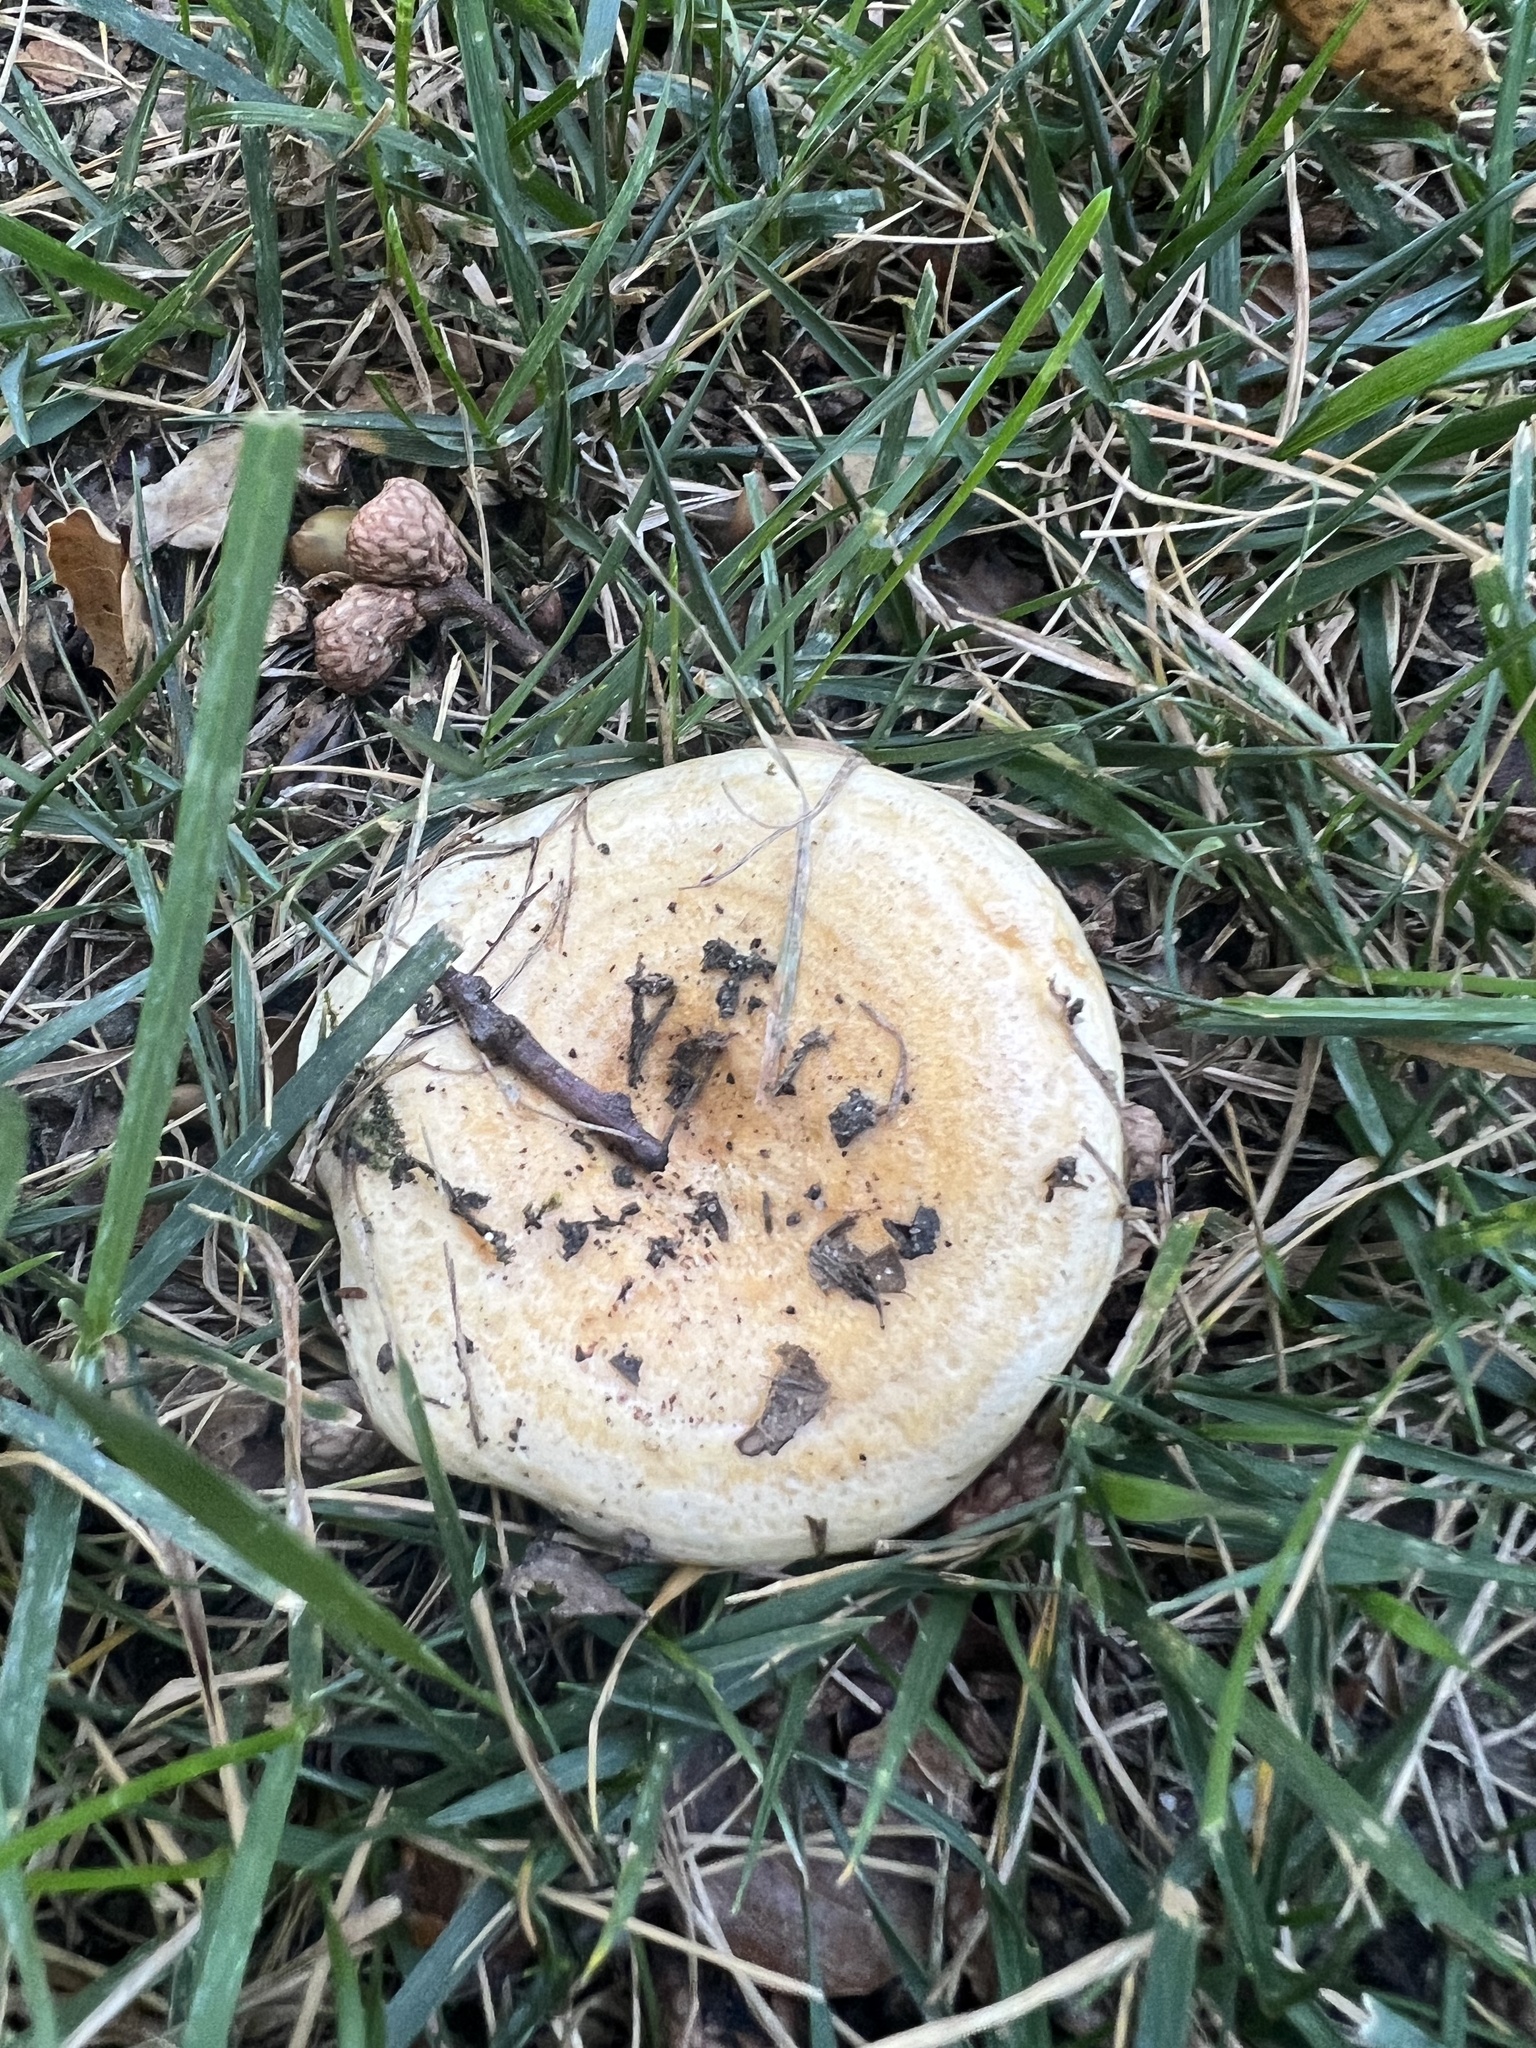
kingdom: Fungi
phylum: Basidiomycota
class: Agaricomycetes
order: Russulales
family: Russulaceae
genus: Lactarius
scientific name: Lactarius alnicola
